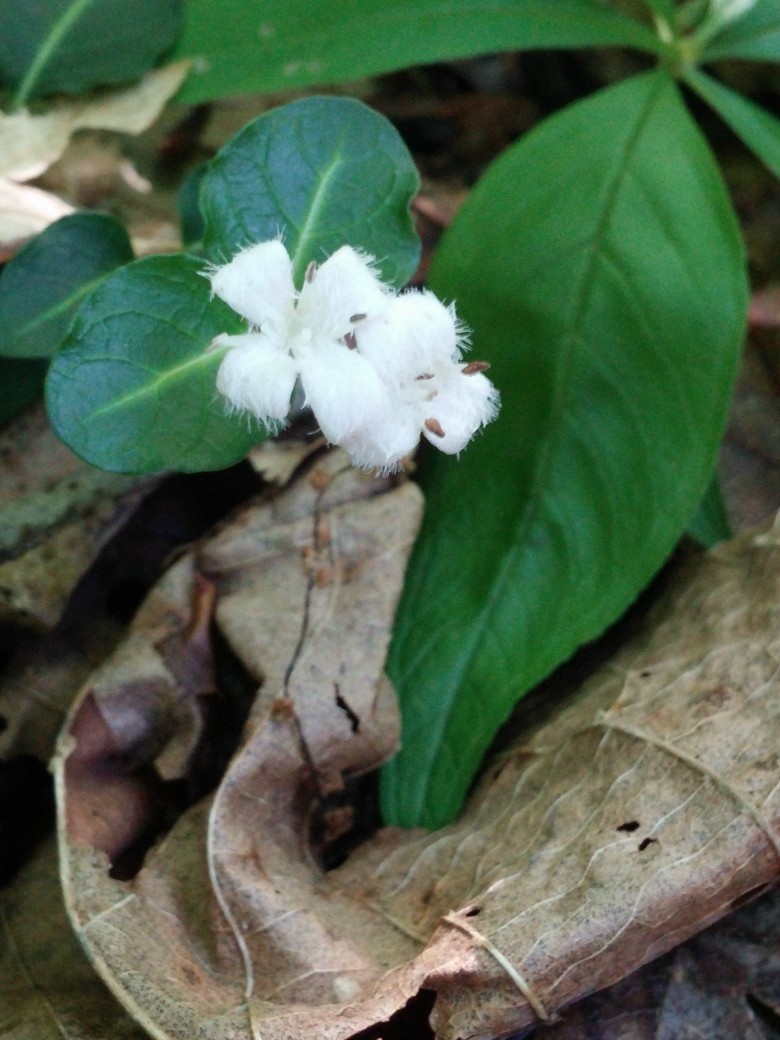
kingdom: Plantae
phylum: Tracheophyta
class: Magnoliopsida
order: Gentianales
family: Rubiaceae
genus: Mitchella
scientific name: Mitchella repens
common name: Partridge-berry
